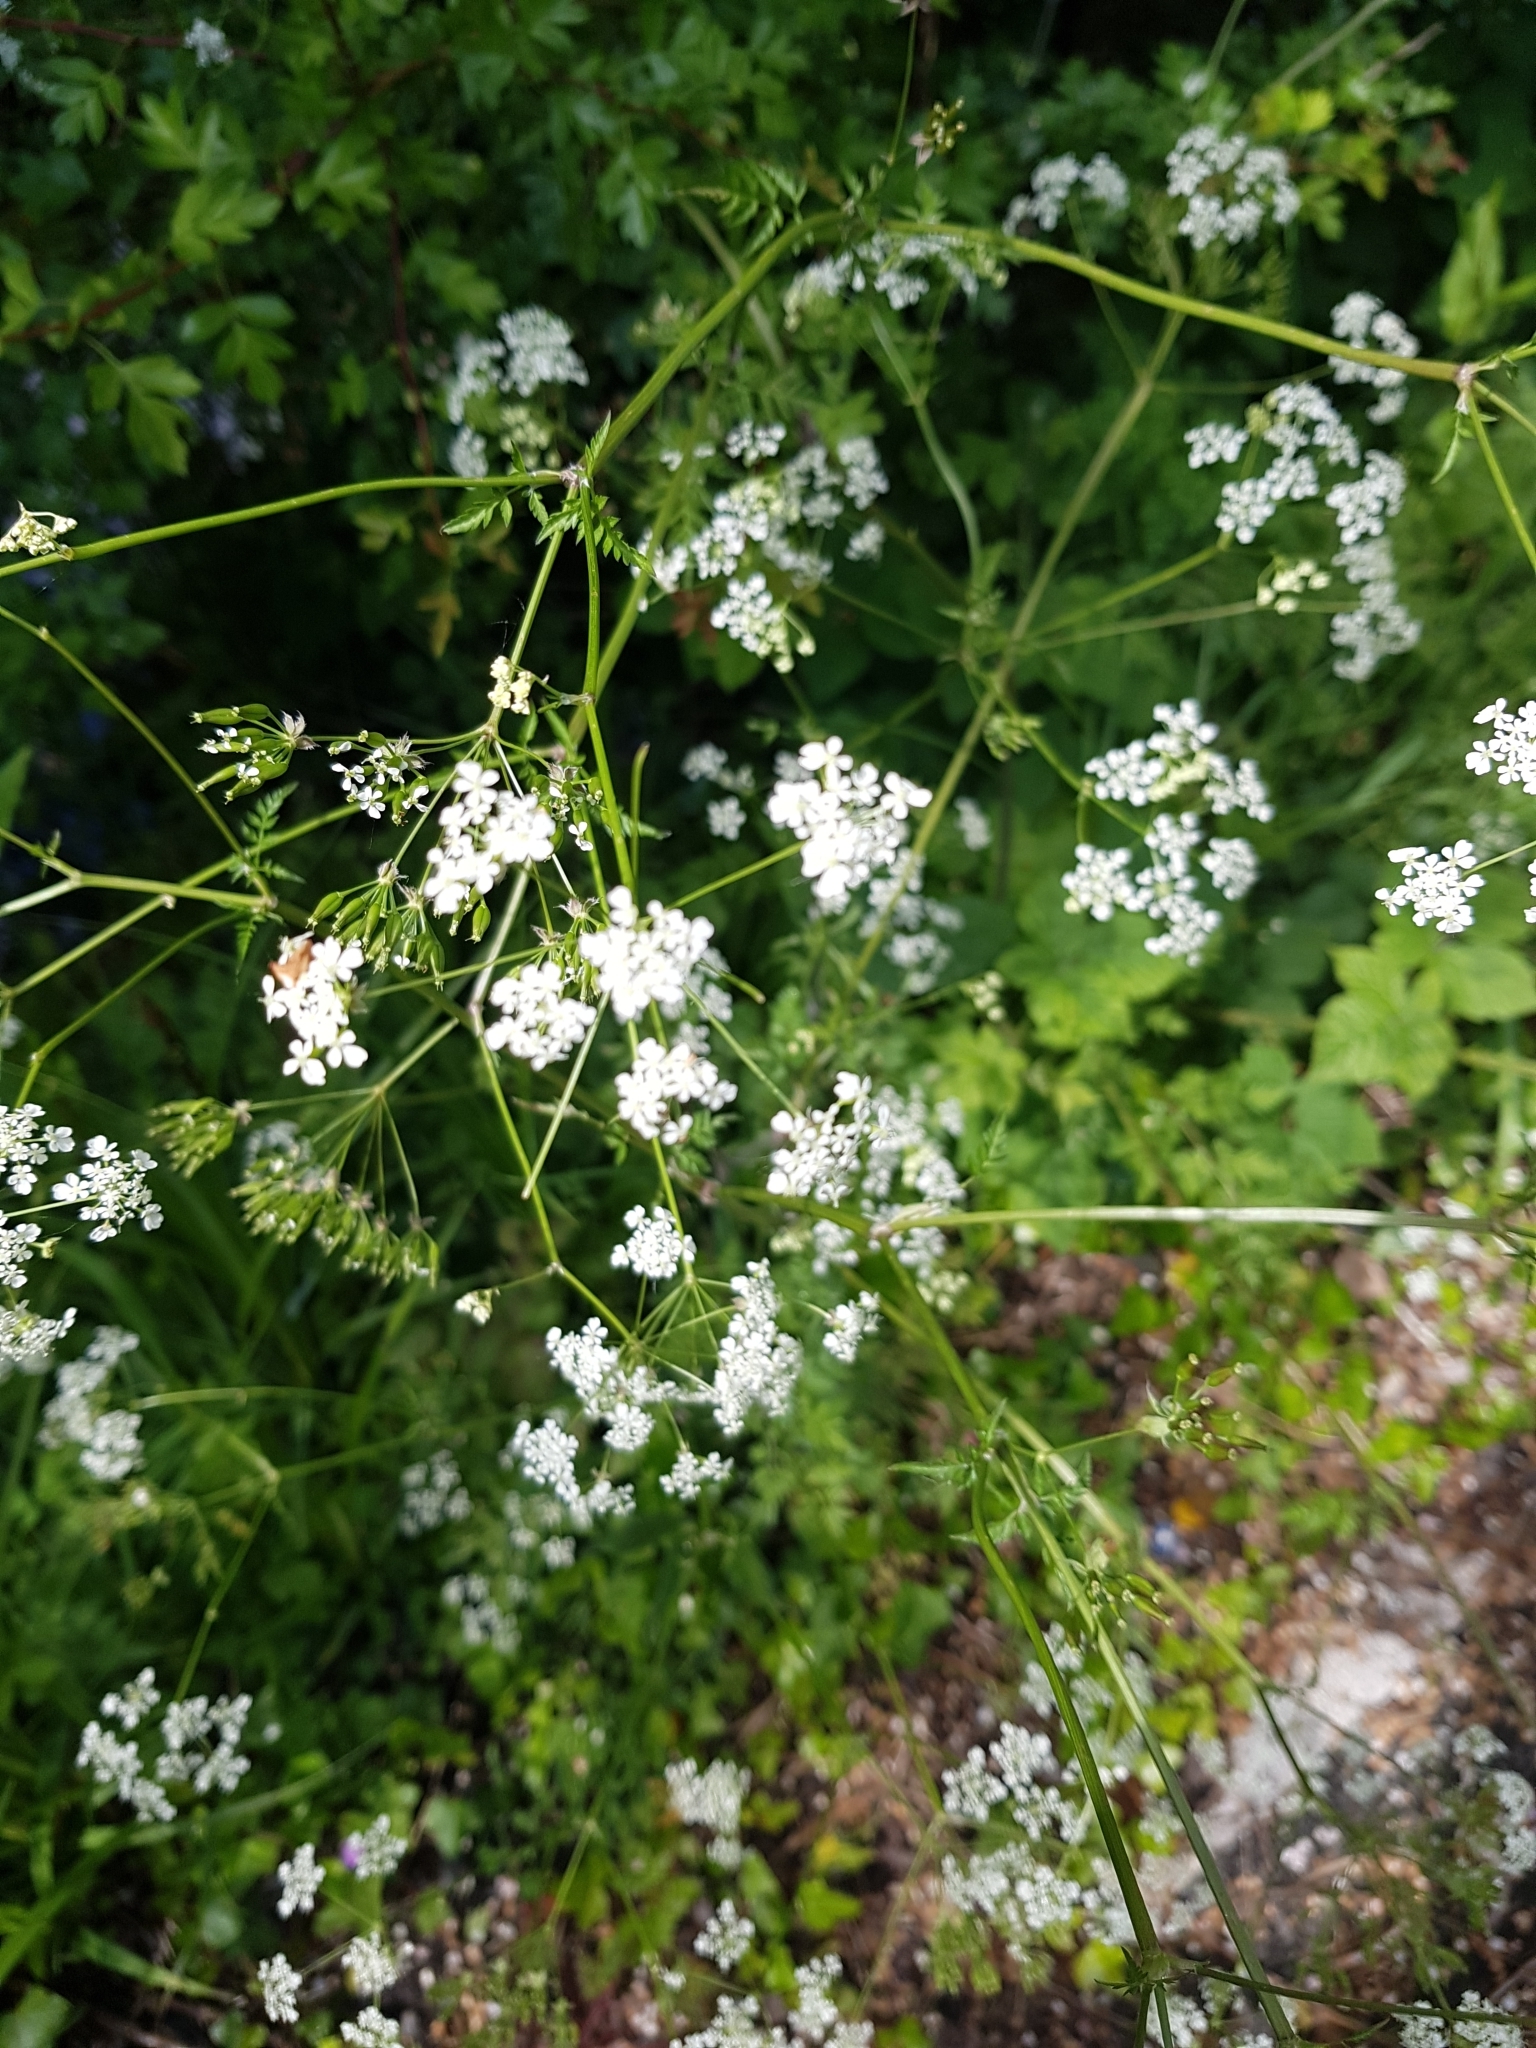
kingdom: Plantae
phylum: Tracheophyta
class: Magnoliopsida
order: Apiales
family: Apiaceae
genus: Anthriscus
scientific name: Anthriscus sylvestris
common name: Cow parsley
